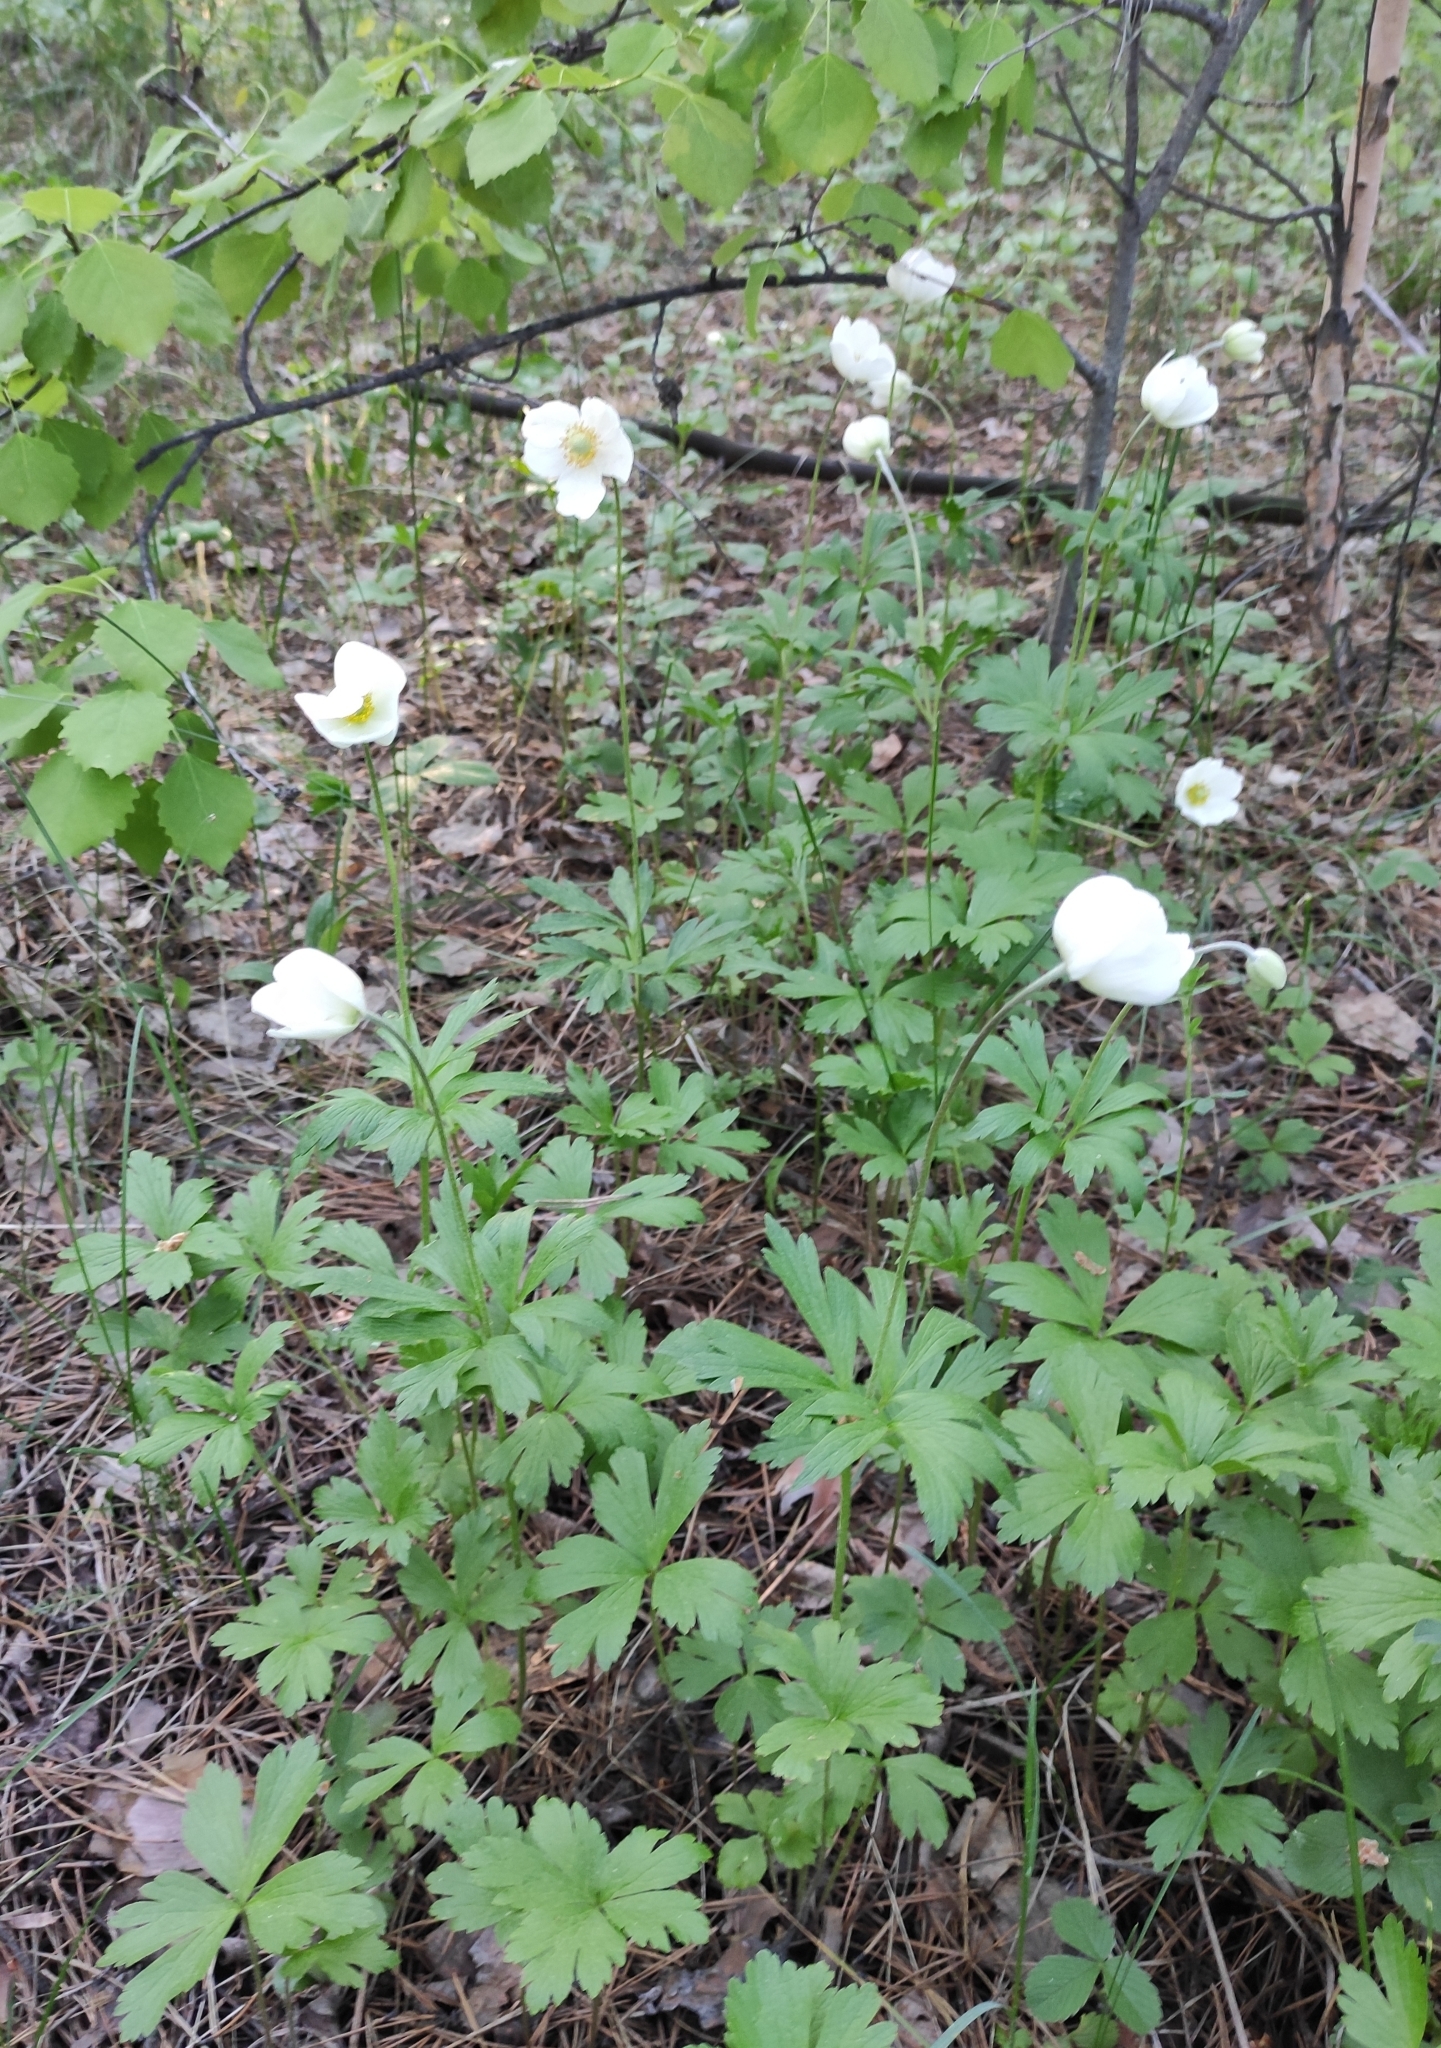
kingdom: Plantae
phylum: Tracheophyta
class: Magnoliopsida
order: Ranunculales
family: Ranunculaceae
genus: Anemone
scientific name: Anemone sylvestris
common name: Snowdrop anemone
